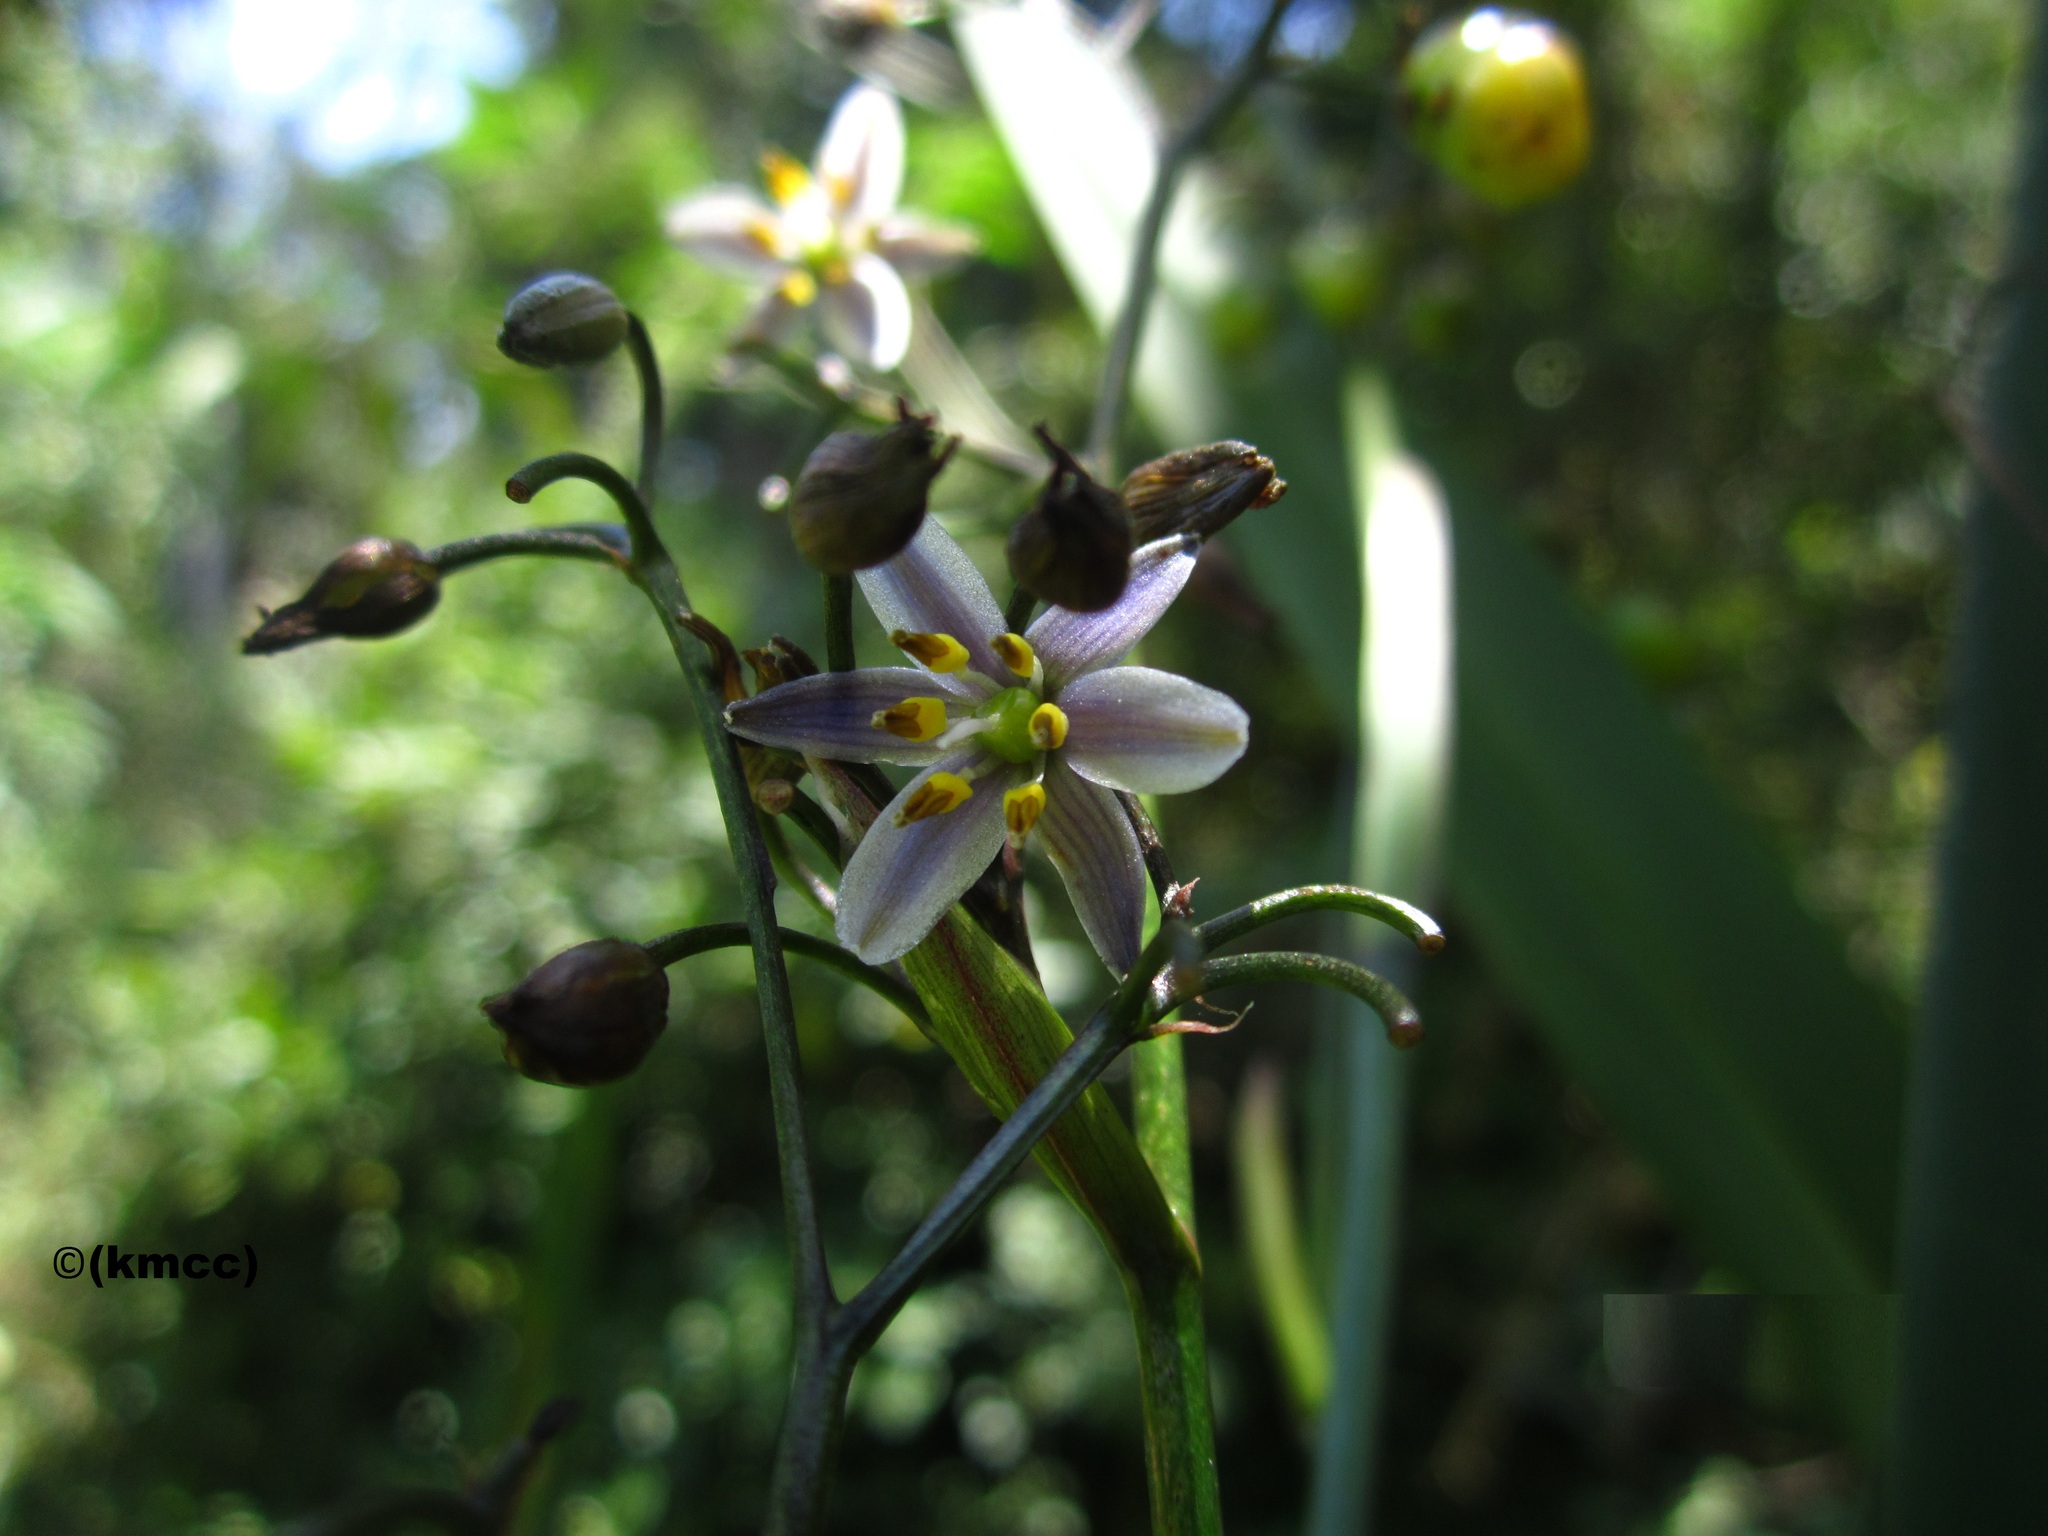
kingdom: Plantae
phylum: Tracheophyta
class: Liliopsida
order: Asparagales
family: Asphodelaceae
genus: Dianella
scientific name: Dianella ensifolia
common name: New zealand lilyplant
